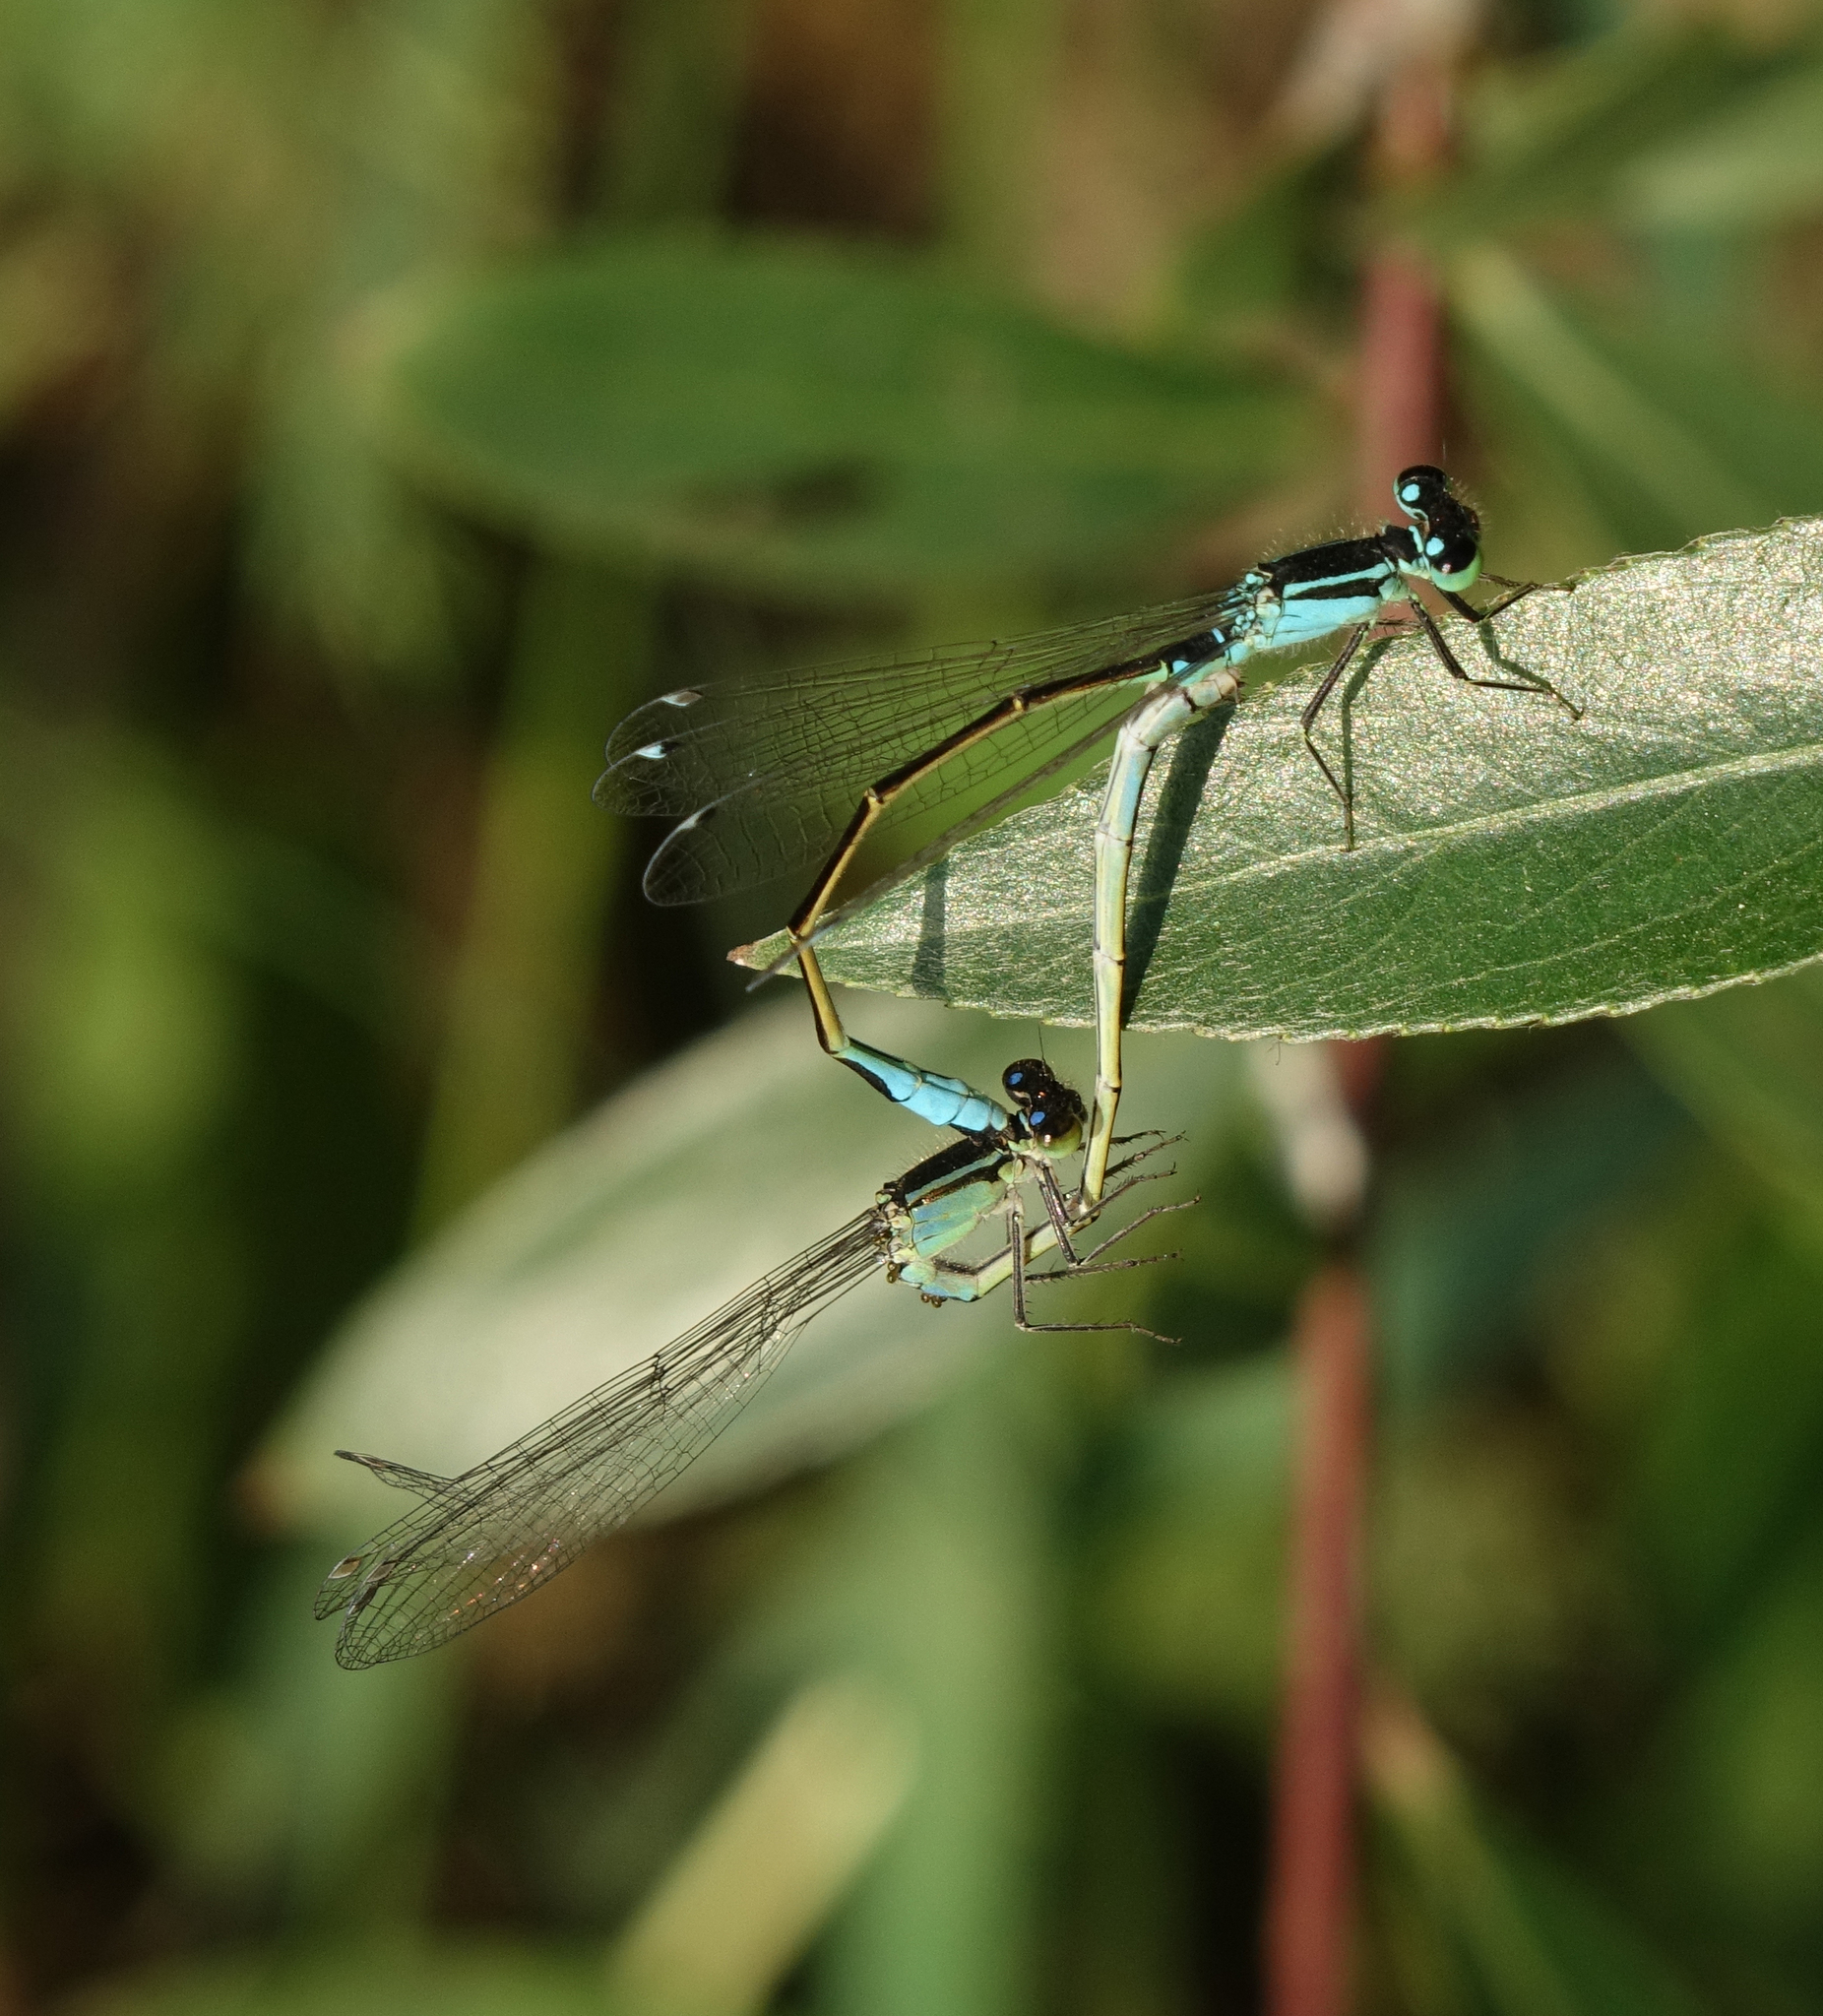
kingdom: Animalia
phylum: Arthropoda
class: Insecta
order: Odonata
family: Coenagrionidae
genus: Ischnura
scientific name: Ischnura elegans
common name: Blue-tailed damselfly
